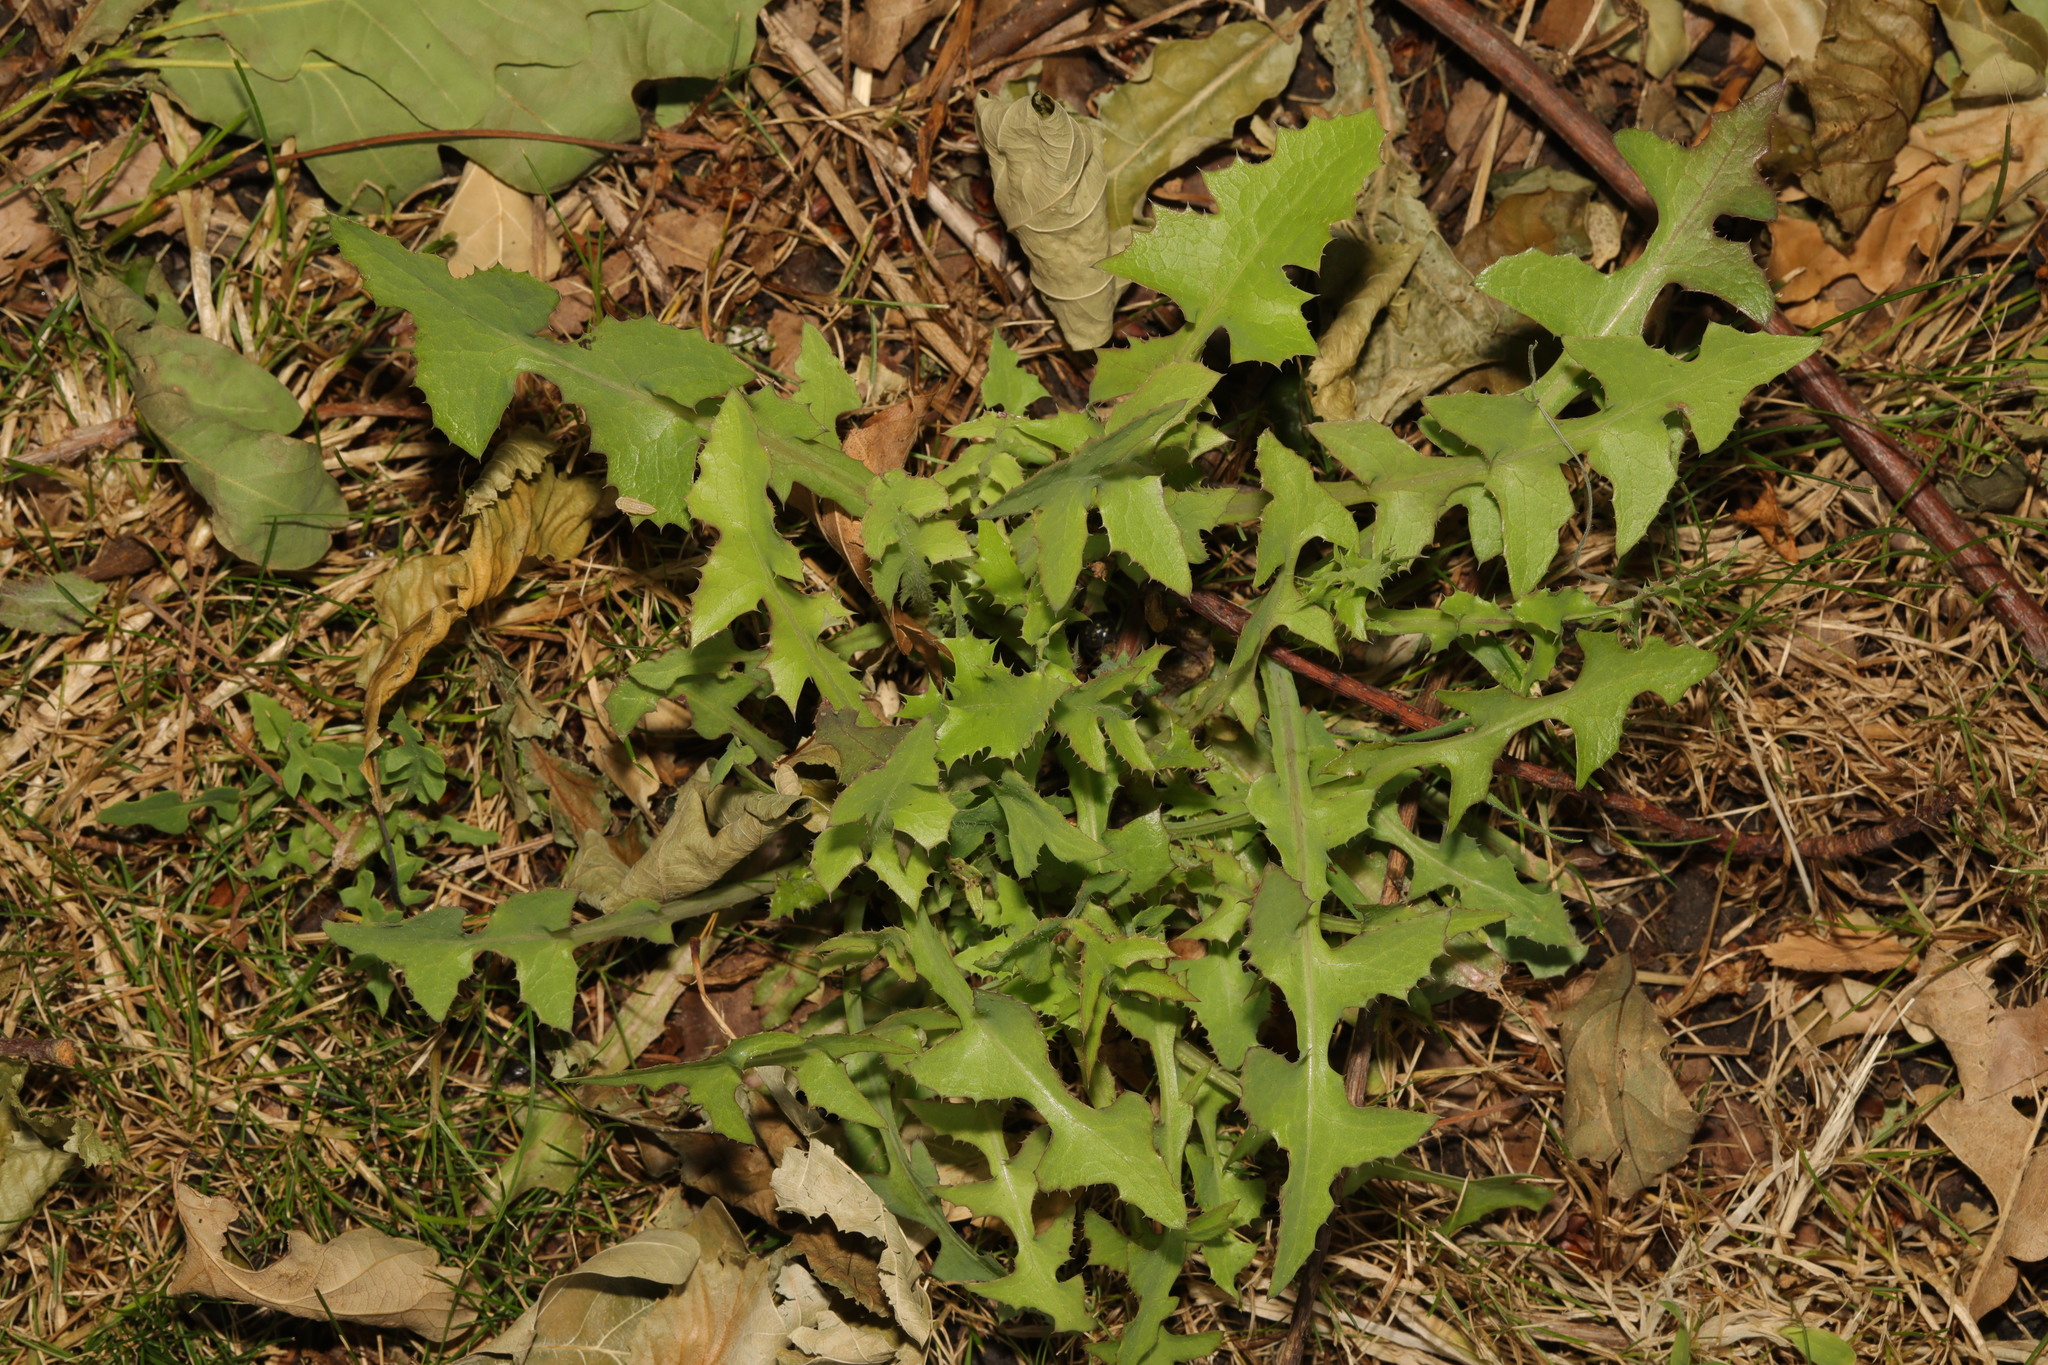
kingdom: Plantae
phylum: Tracheophyta
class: Magnoliopsida
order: Asterales
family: Asteraceae
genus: Taraxacum
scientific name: Taraxacum officinale
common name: Common dandelion
